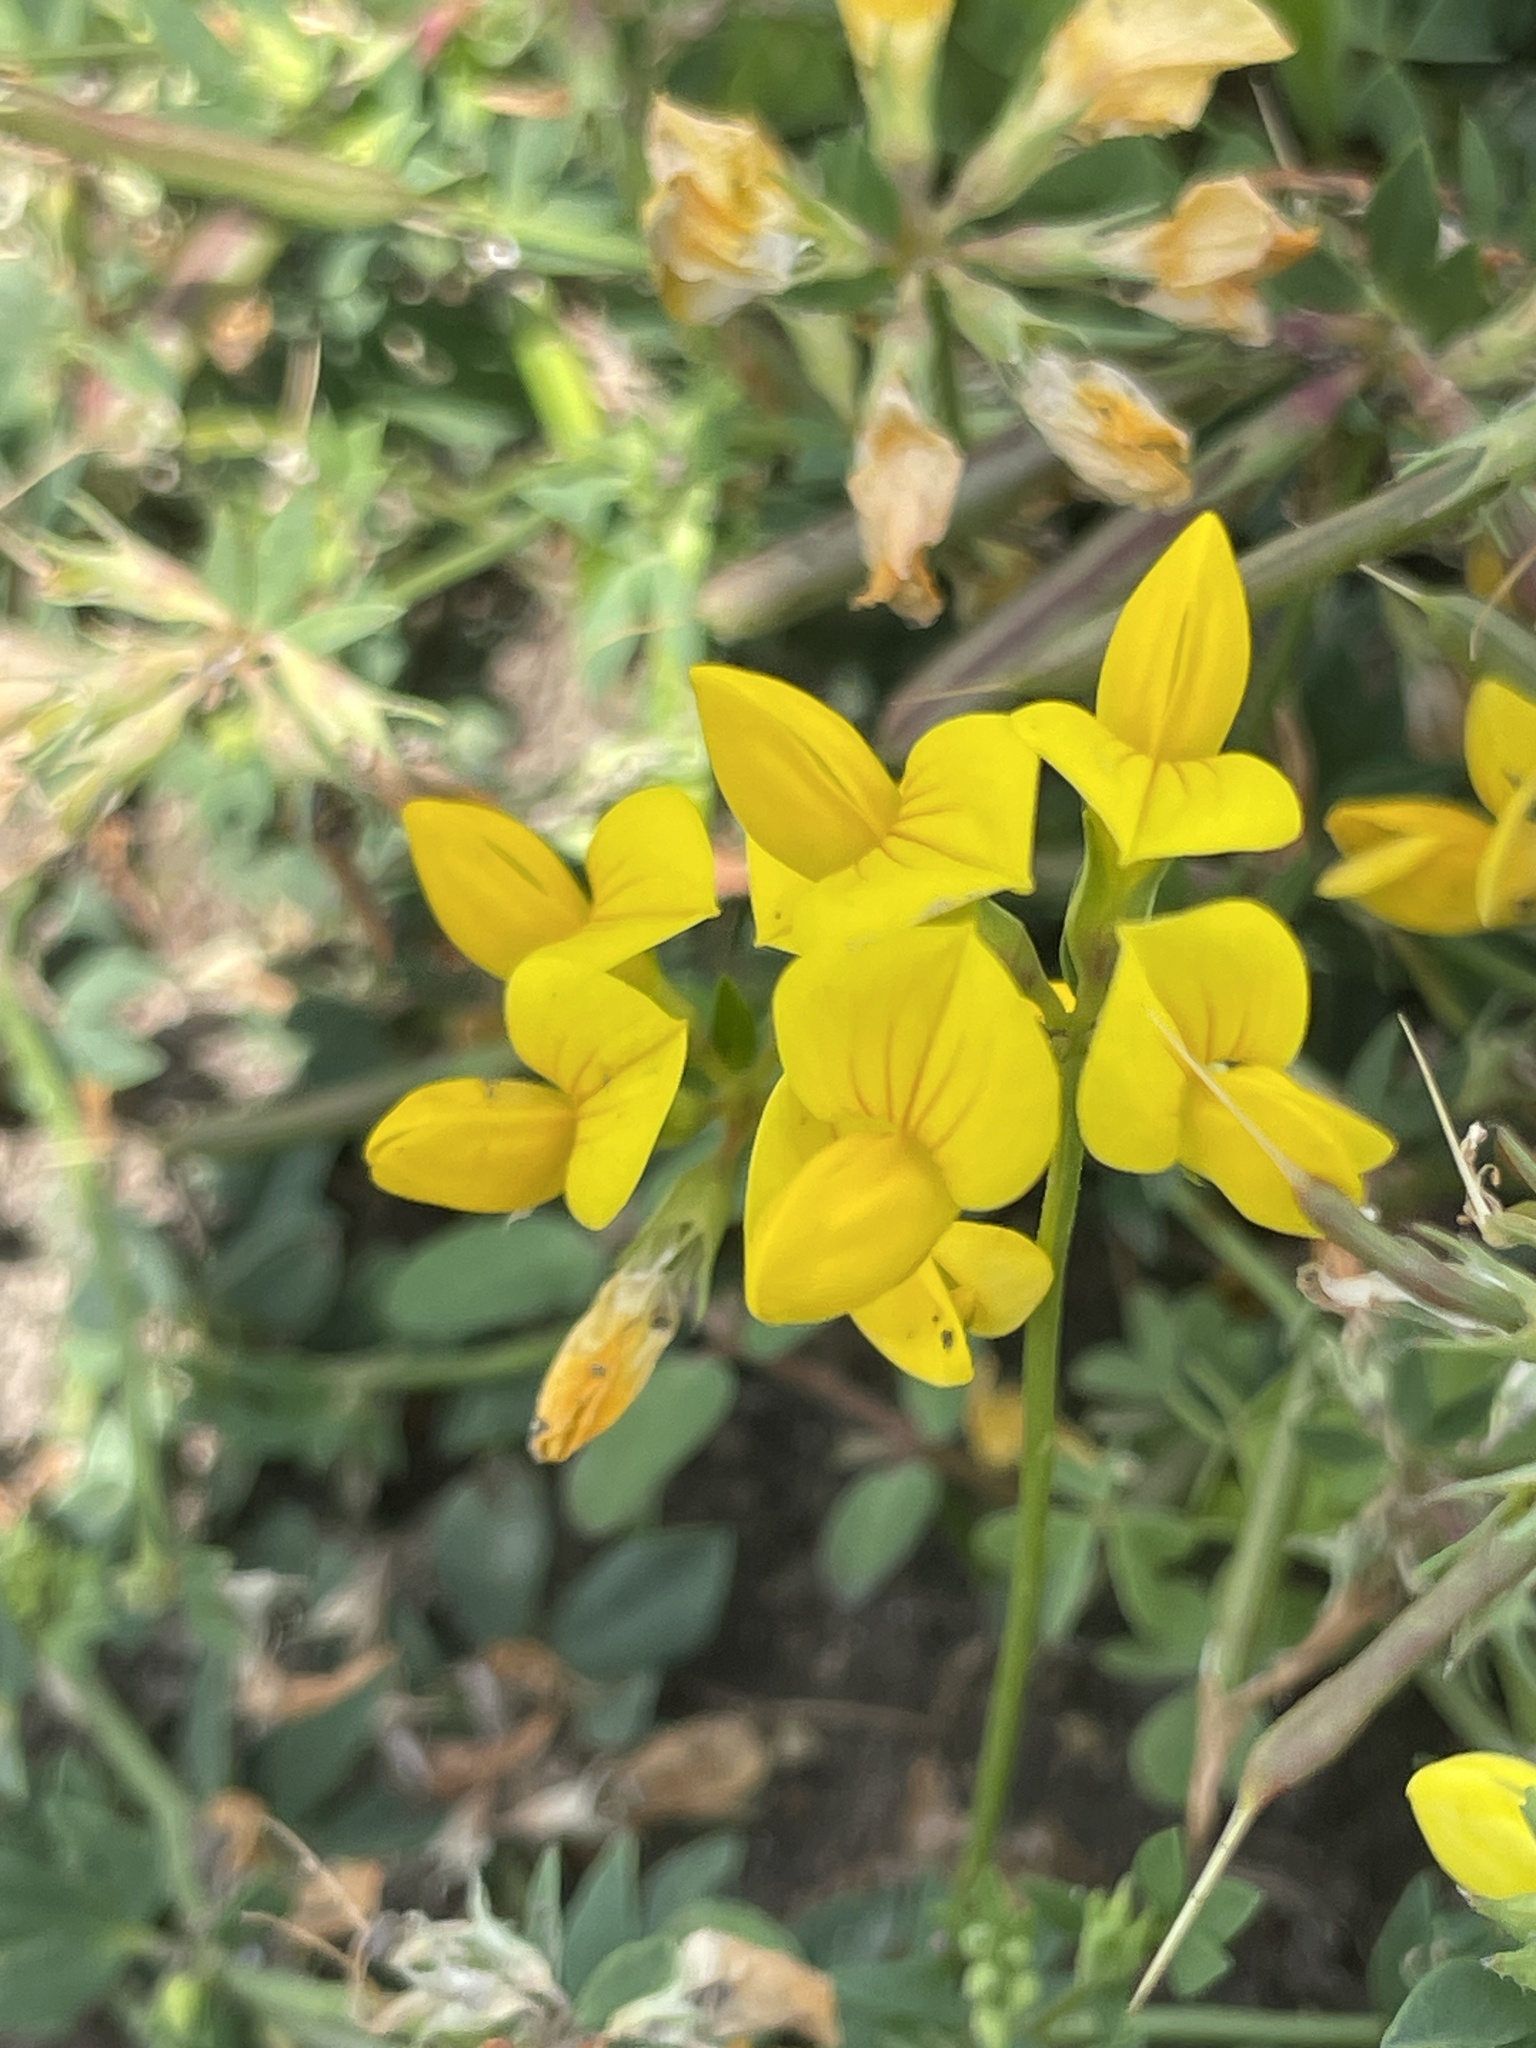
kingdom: Plantae
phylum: Tracheophyta
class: Magnoliopsida
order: Fabales
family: Fabaceae
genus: Lotus
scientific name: Lotus corniculatus
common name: Common bird's-foot-trefoil
